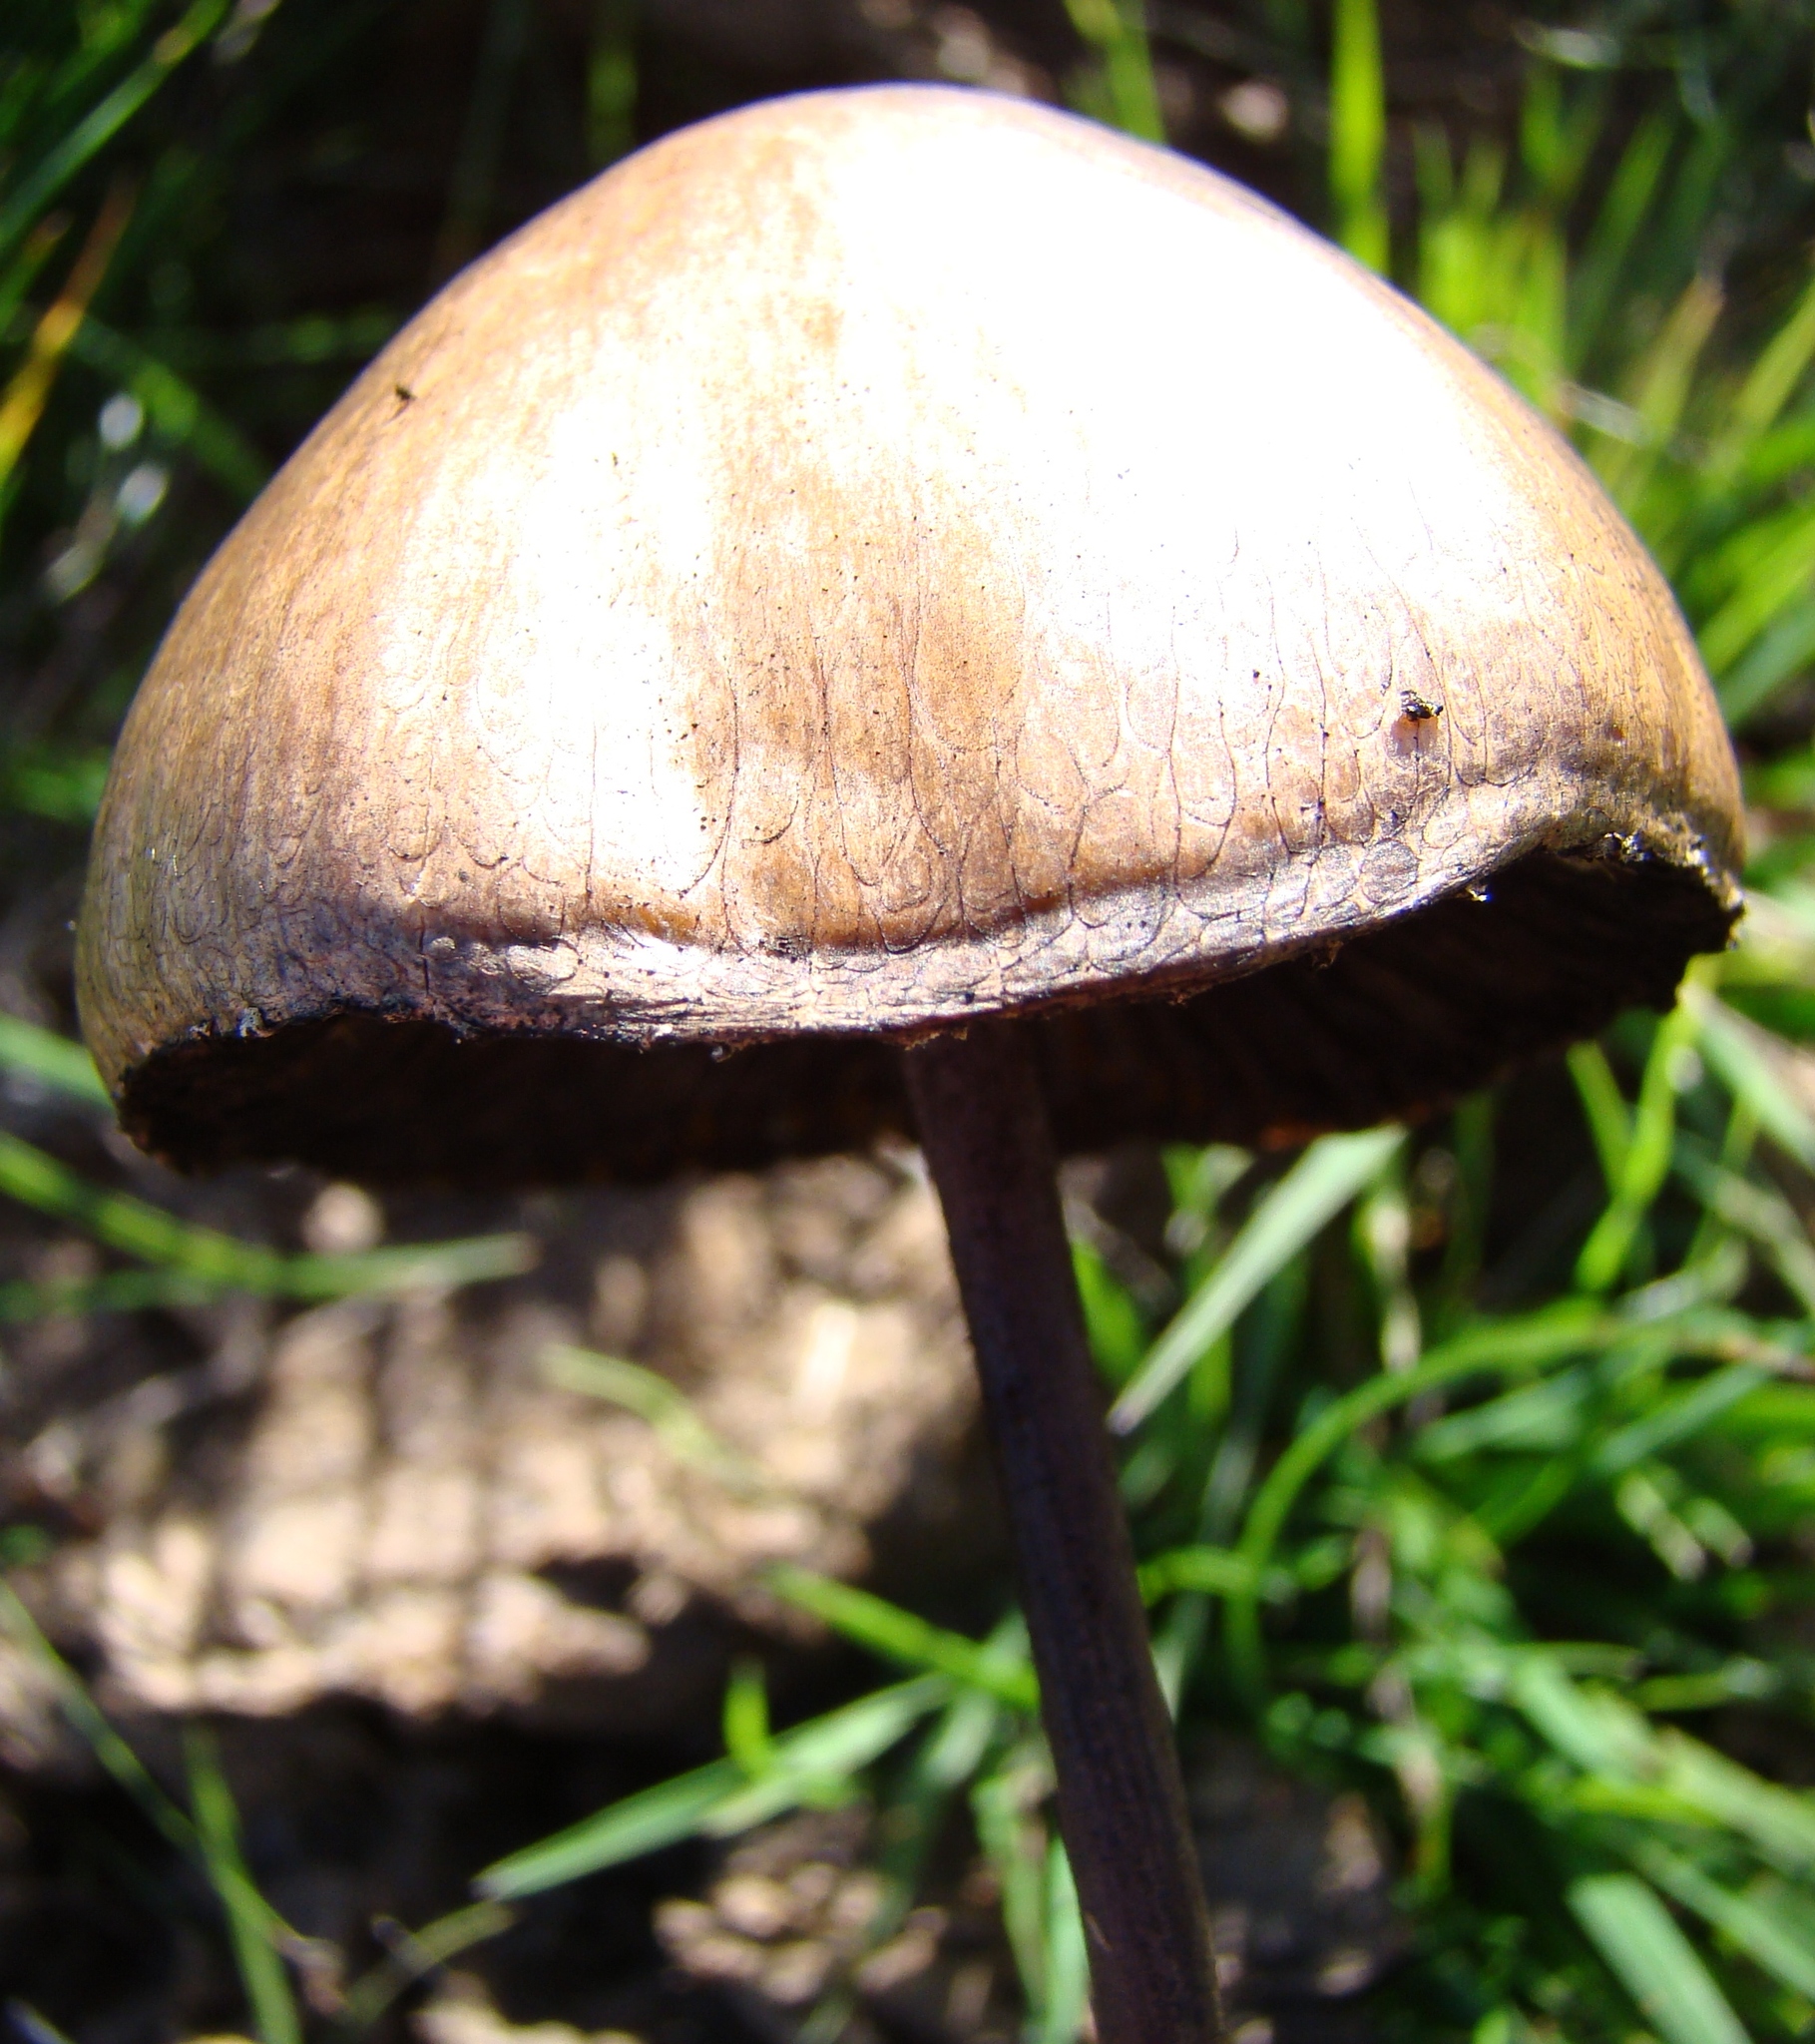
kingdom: Fungi
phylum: Basidiomycota
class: Agaricomycetes
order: Agaricales
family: Bolbitiaceae
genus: Panaeolus
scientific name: Panaeolus semiovatus
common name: Shiny mottlegill
